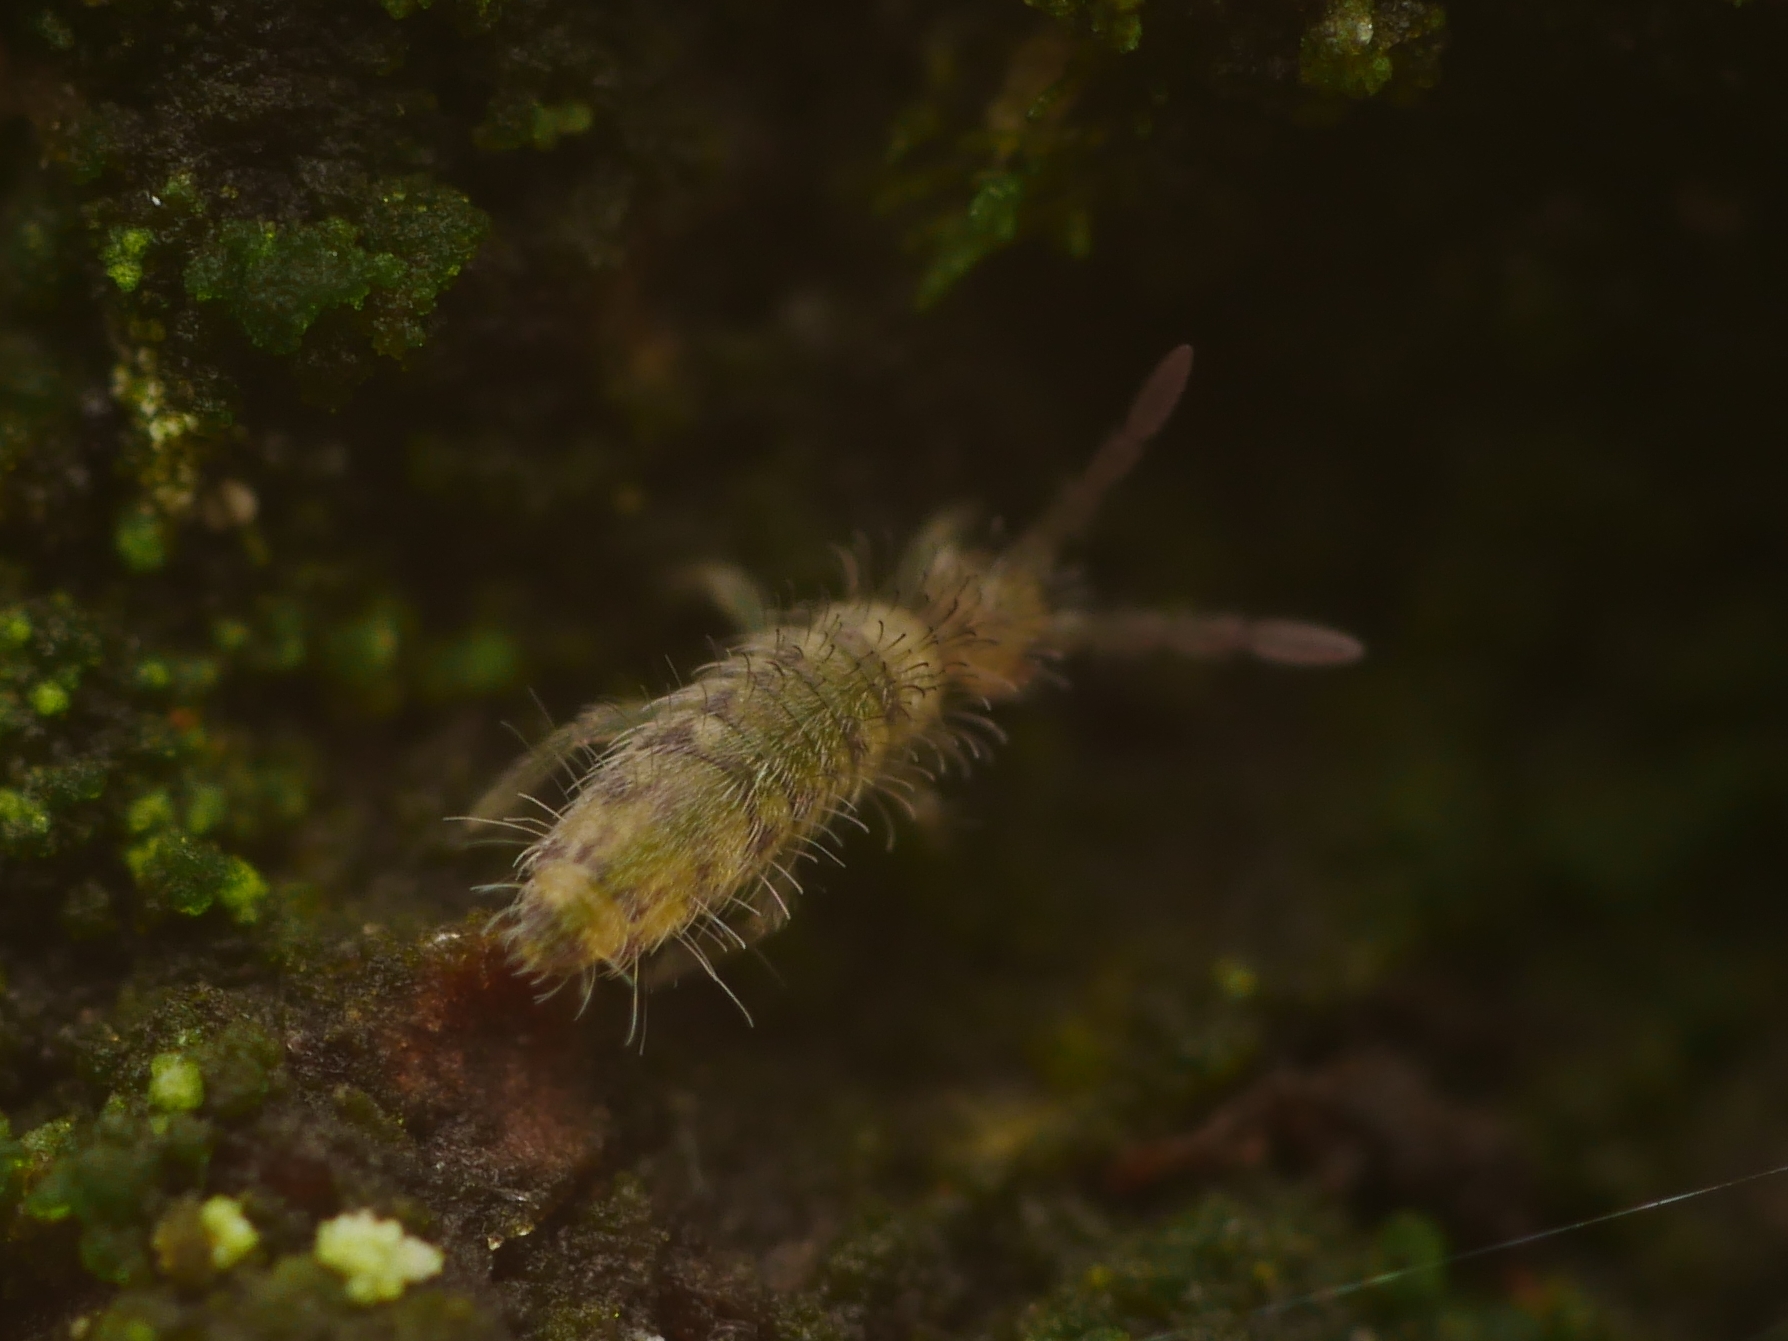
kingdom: Animalia
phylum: Arthropoda
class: Collembola
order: Entomobryomorpha
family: Entomobryidae
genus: Entomobrya
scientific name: Entomobrya multifasciata
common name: Springtail
